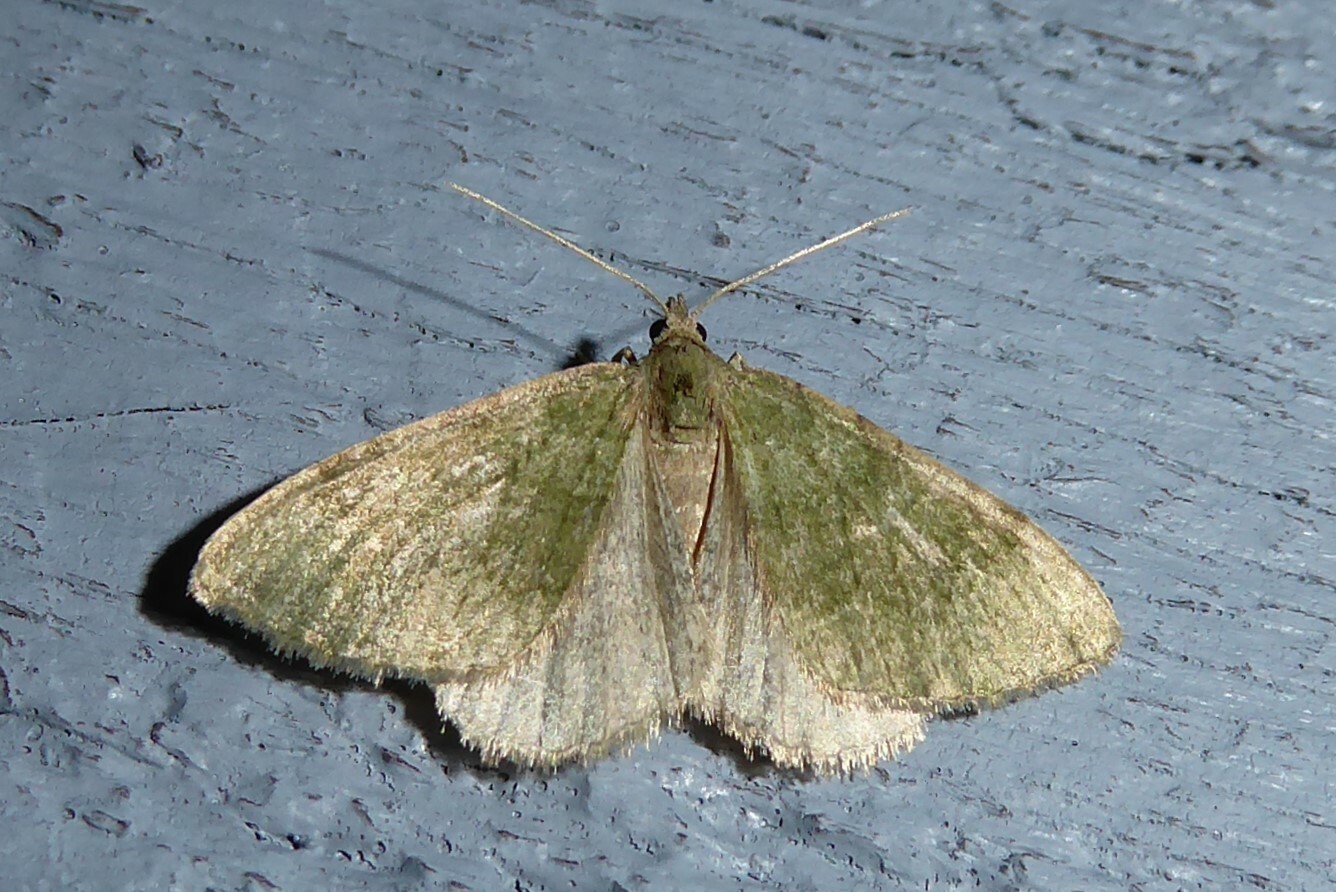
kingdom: Animalia
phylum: Arthropoda
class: Insecta
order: Lepidoptera
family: Geometridae
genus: Epyaxa
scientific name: Epyaxa rosearia
